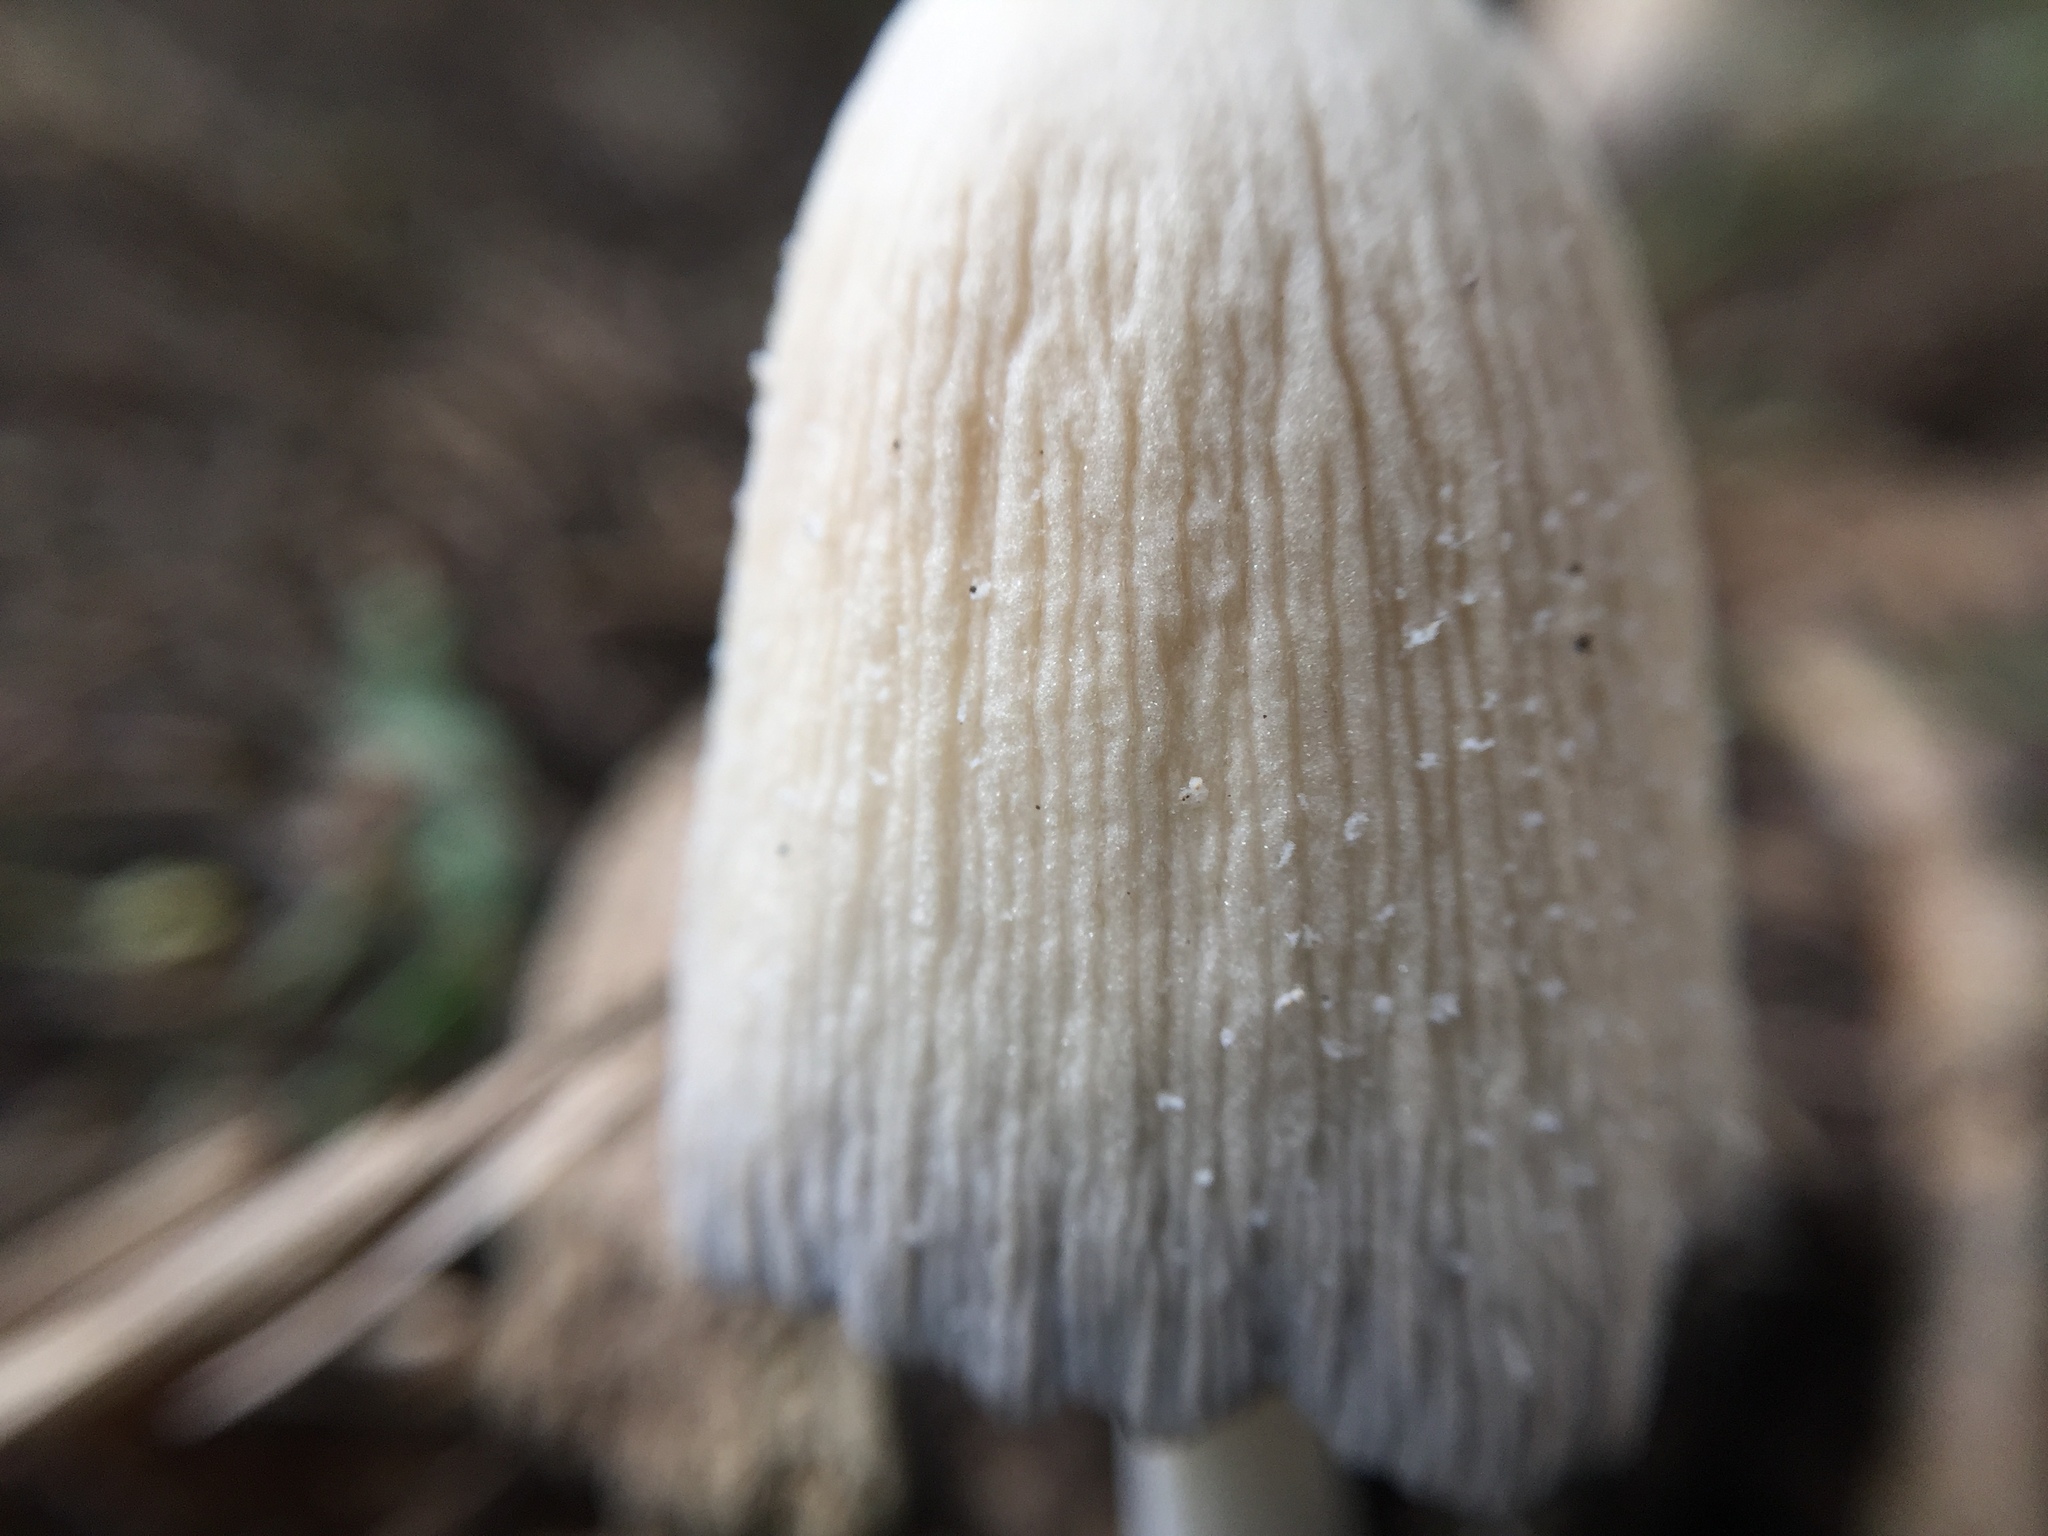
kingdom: Fungi
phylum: Basidiomycota
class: Agaricomycetes
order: Agaricales
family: Psathyrellaceae
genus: Coprinellus
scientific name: Coprinellus micaceus
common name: Glistening ink-cap
